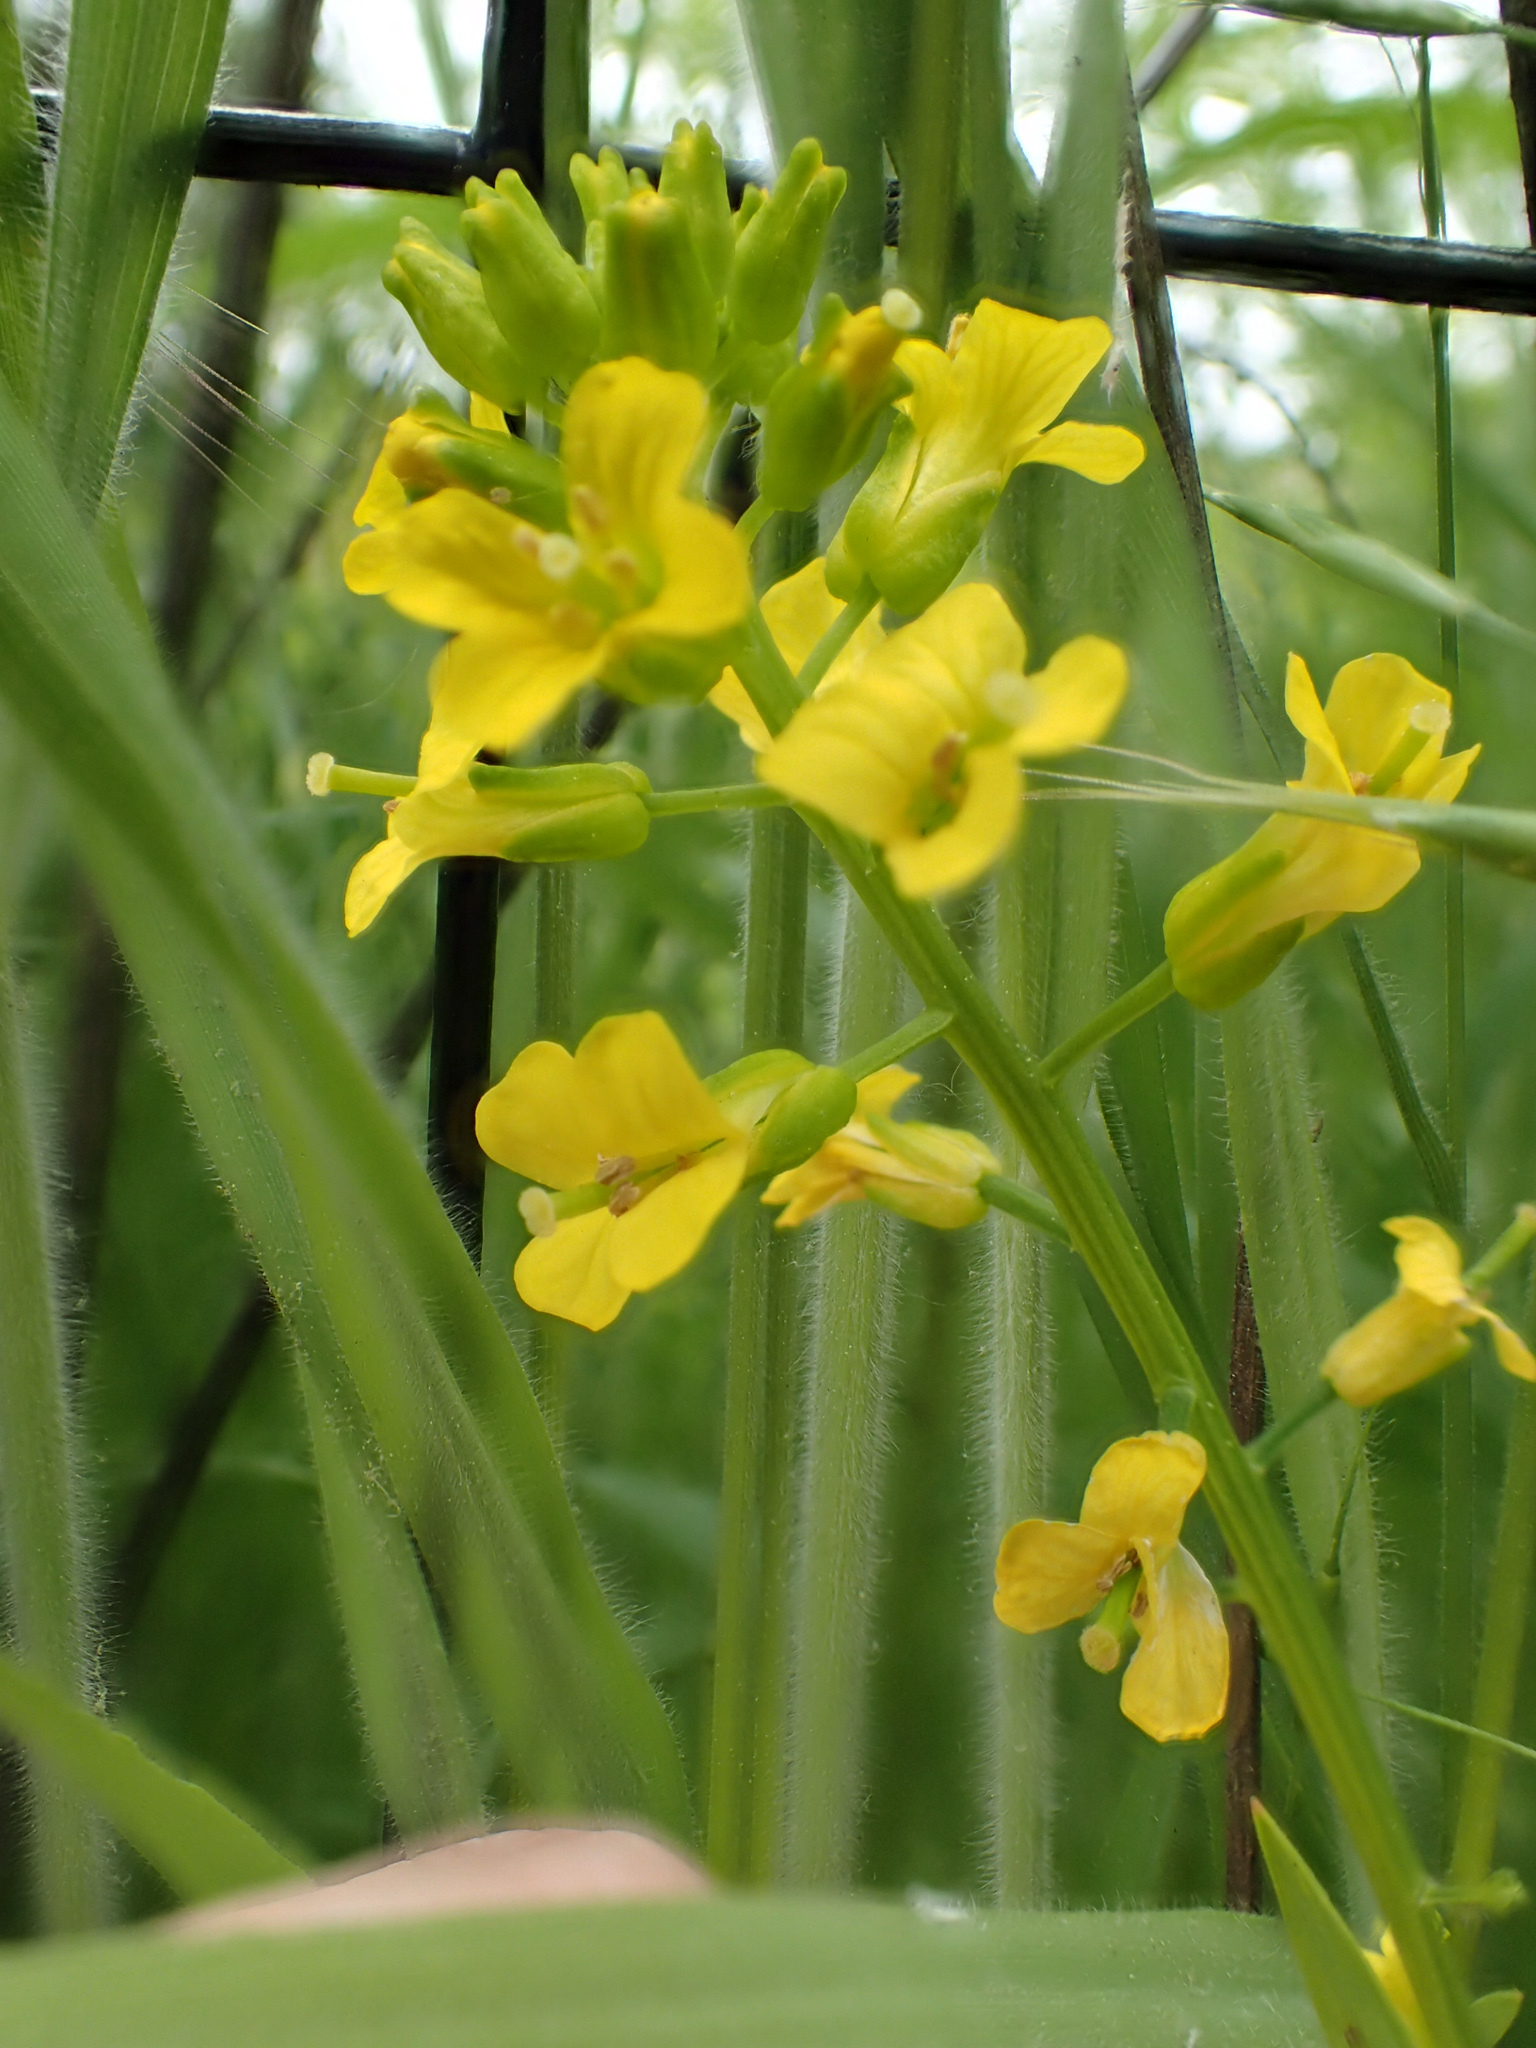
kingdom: Plantae
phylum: Tracheophyta
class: Magnoliopsida
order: Brassicales
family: Brassicaceae
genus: Barbarea
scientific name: Barbarea vulgaris
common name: Cressy-greens
